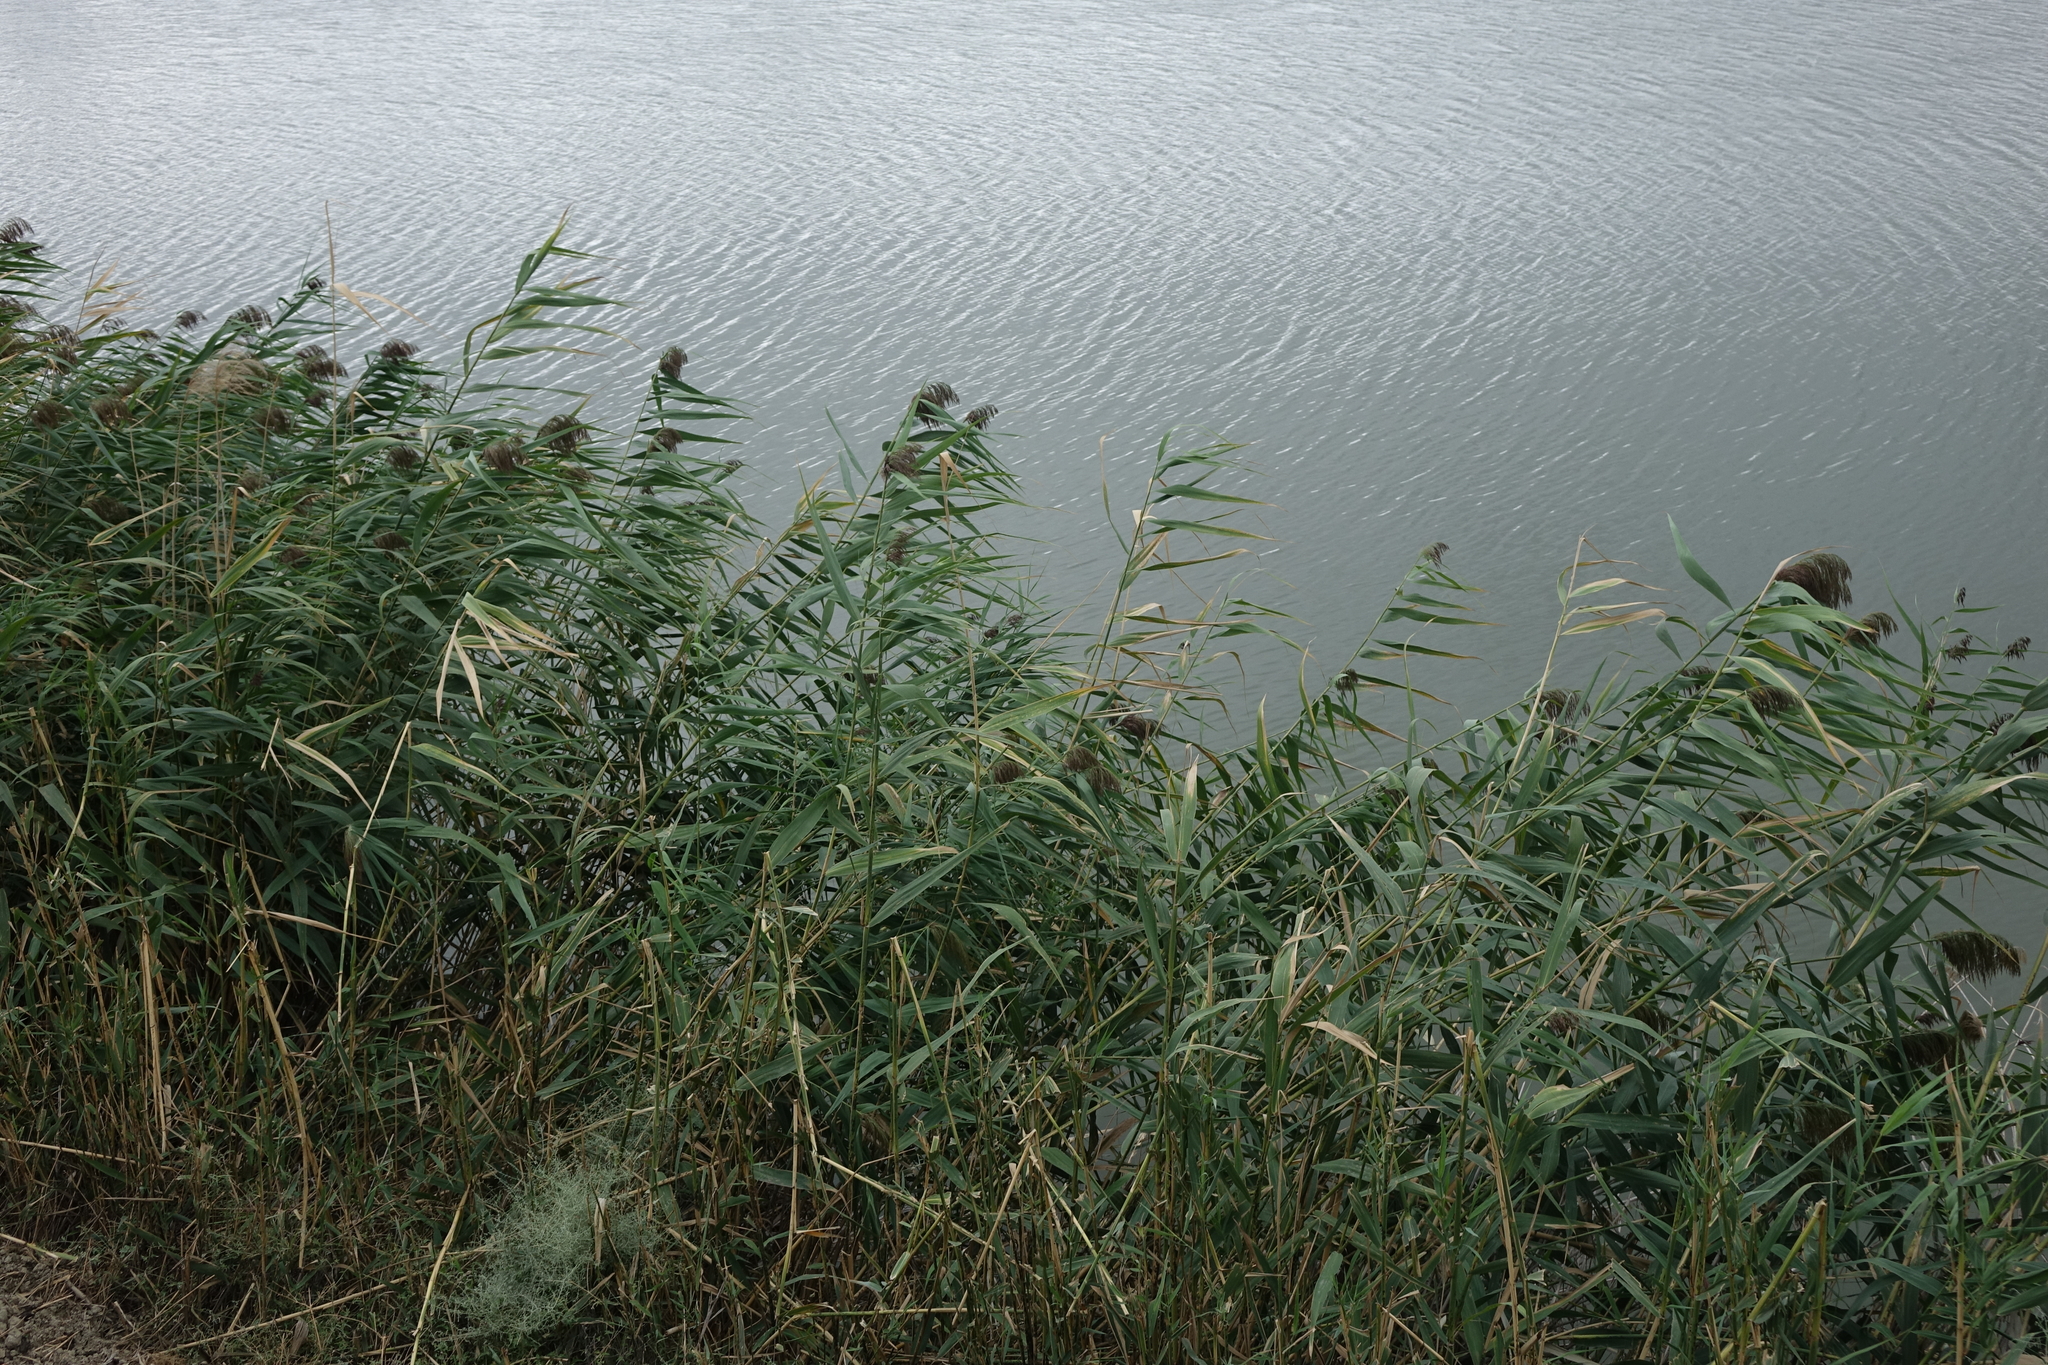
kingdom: Plantae
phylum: Tracheophyta
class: Liliopsida
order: Poales
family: Poaceae
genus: Phragmites
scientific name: Phragmites australis
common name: Common reed
